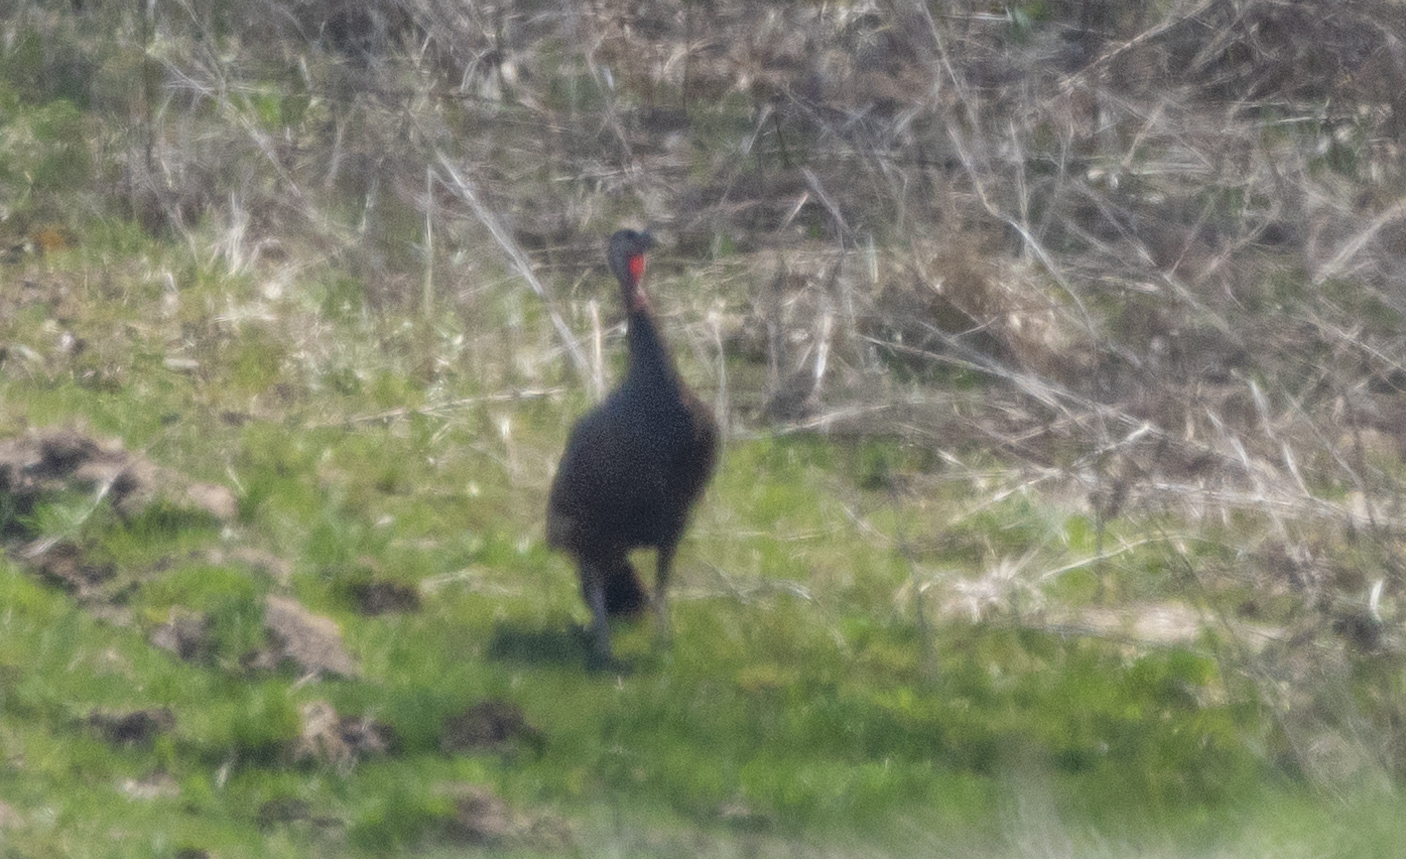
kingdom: Animalia
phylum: Chordata
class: Aves
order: Galliformes
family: Phasianidae
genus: Meleagris
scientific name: Meleagris gallopavo
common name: Wild turkey
